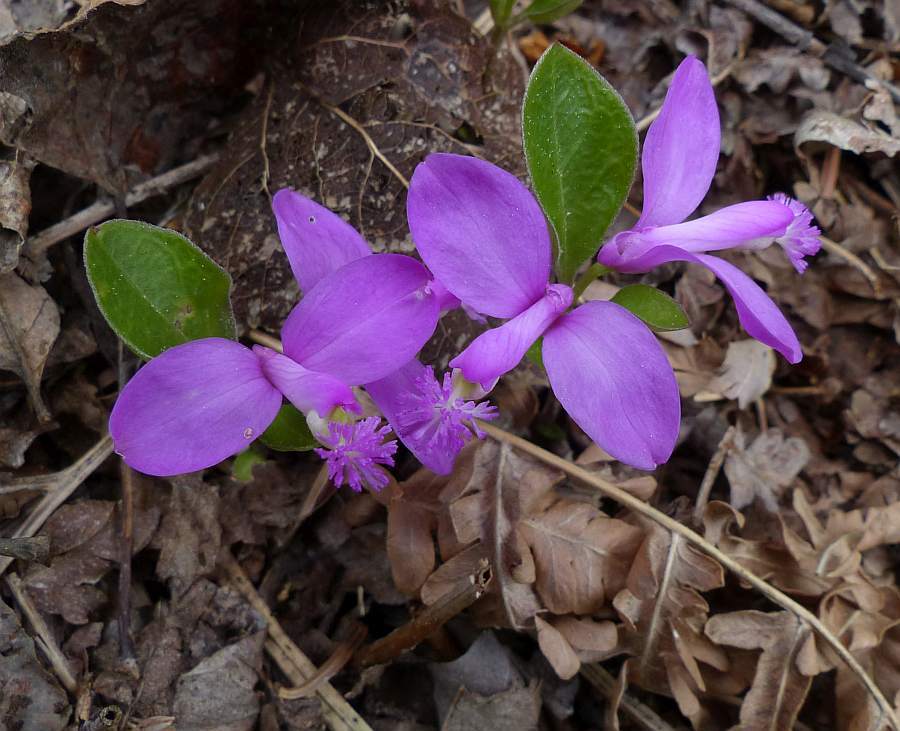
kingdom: Plantae
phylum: Tracheophyta
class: Magnoliopsida
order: Fabales
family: Polygalaceae
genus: Polygaloides
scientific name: Polygaloides paucifolia
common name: Bird-on-the-wing
